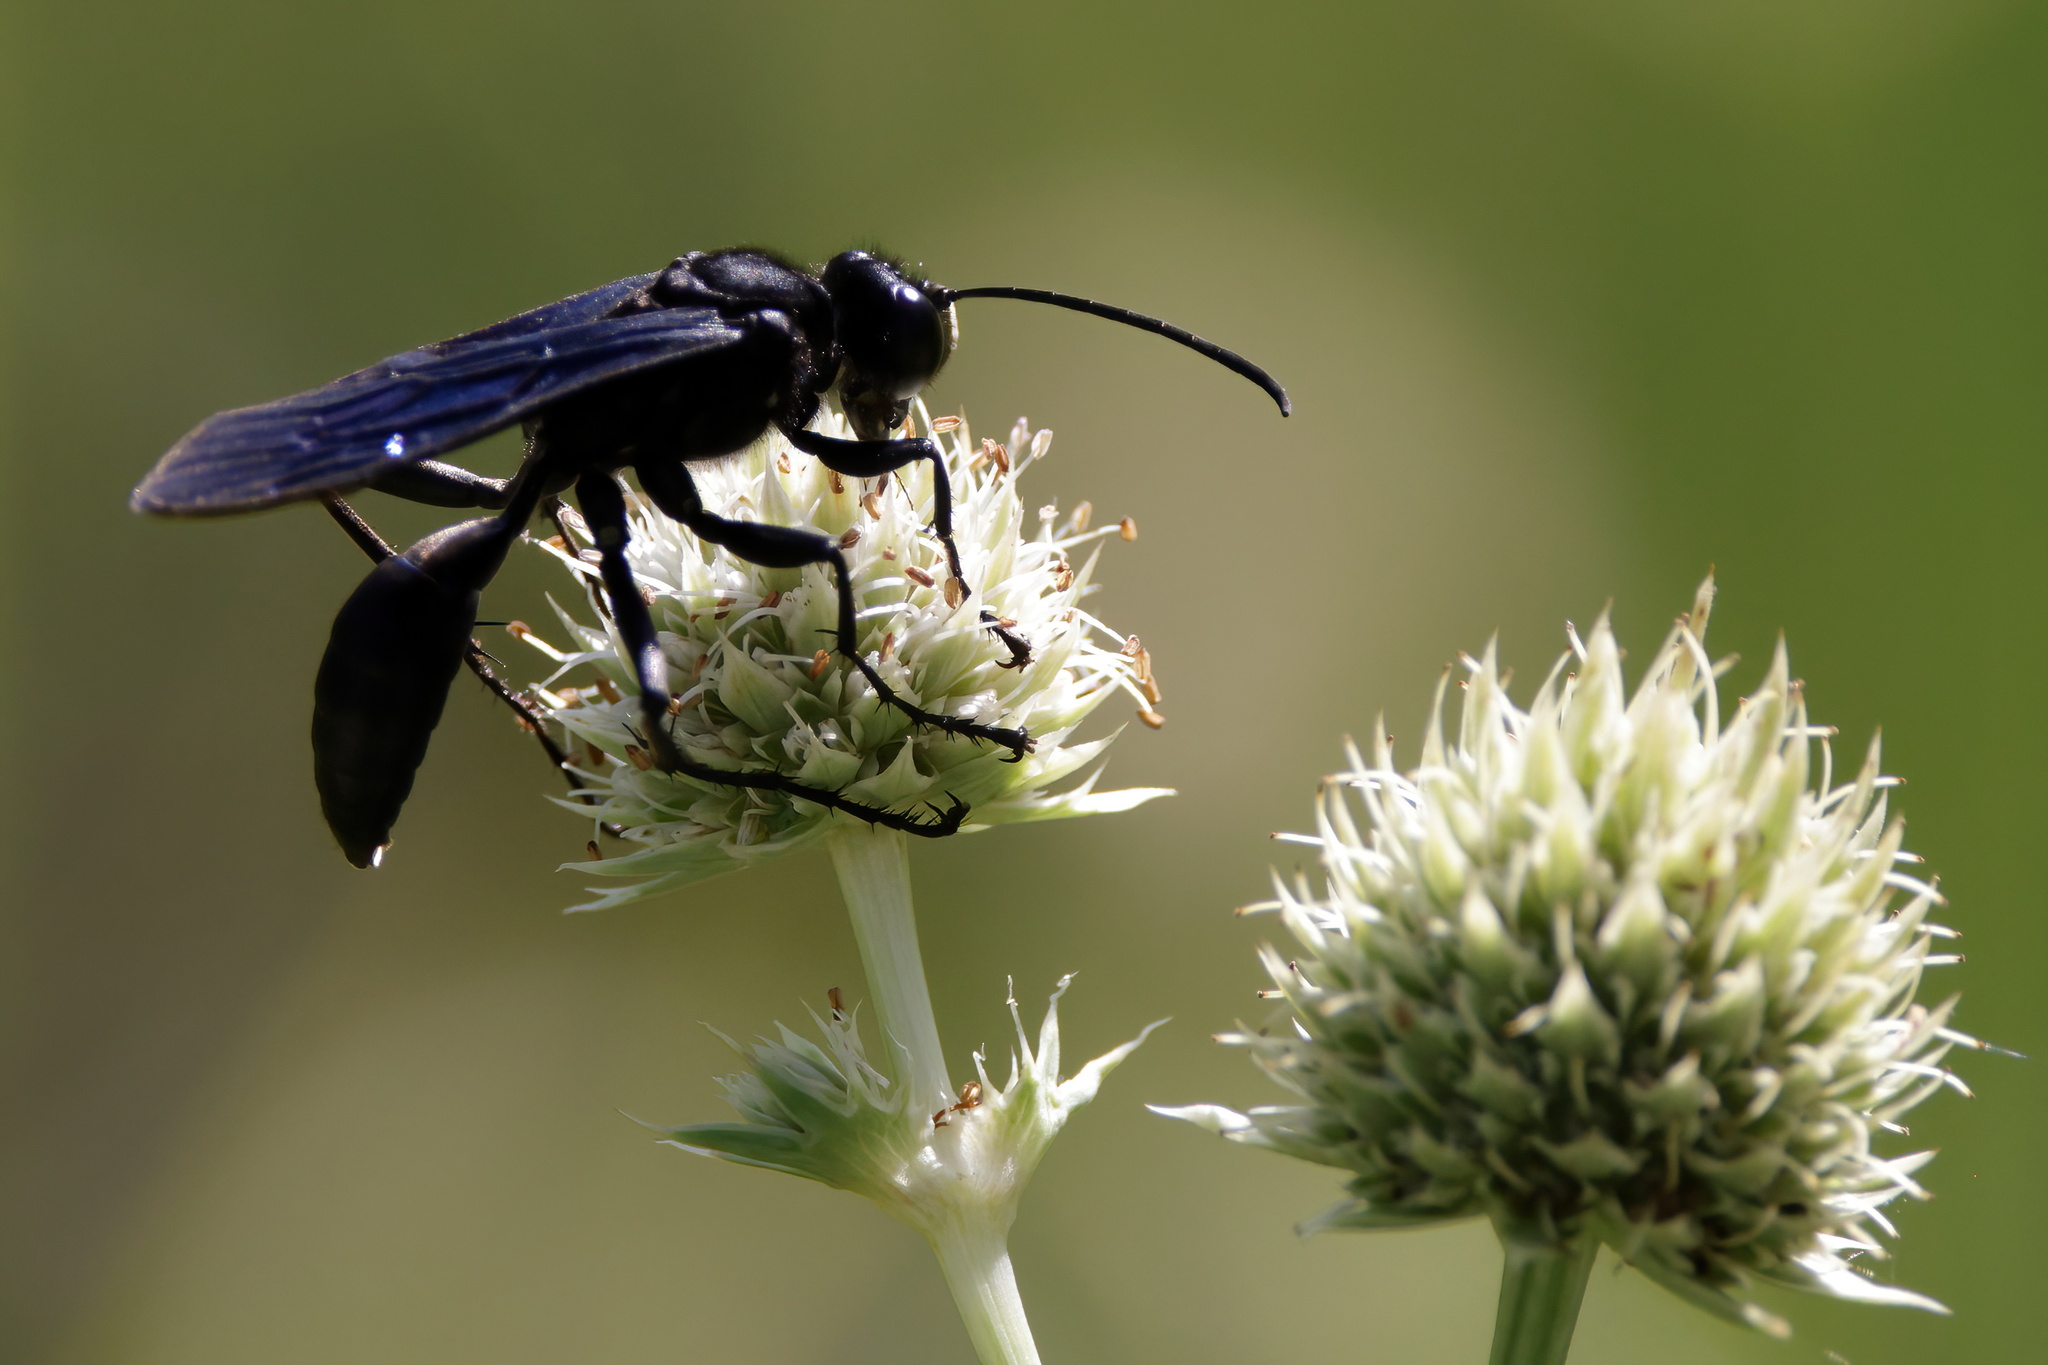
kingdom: Animalia
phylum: Arthropoda
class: Insecta
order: Hymenoptera
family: Sphecidae
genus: Sphex
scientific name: Sphex pensylvanicus
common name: Great black digger wasp
